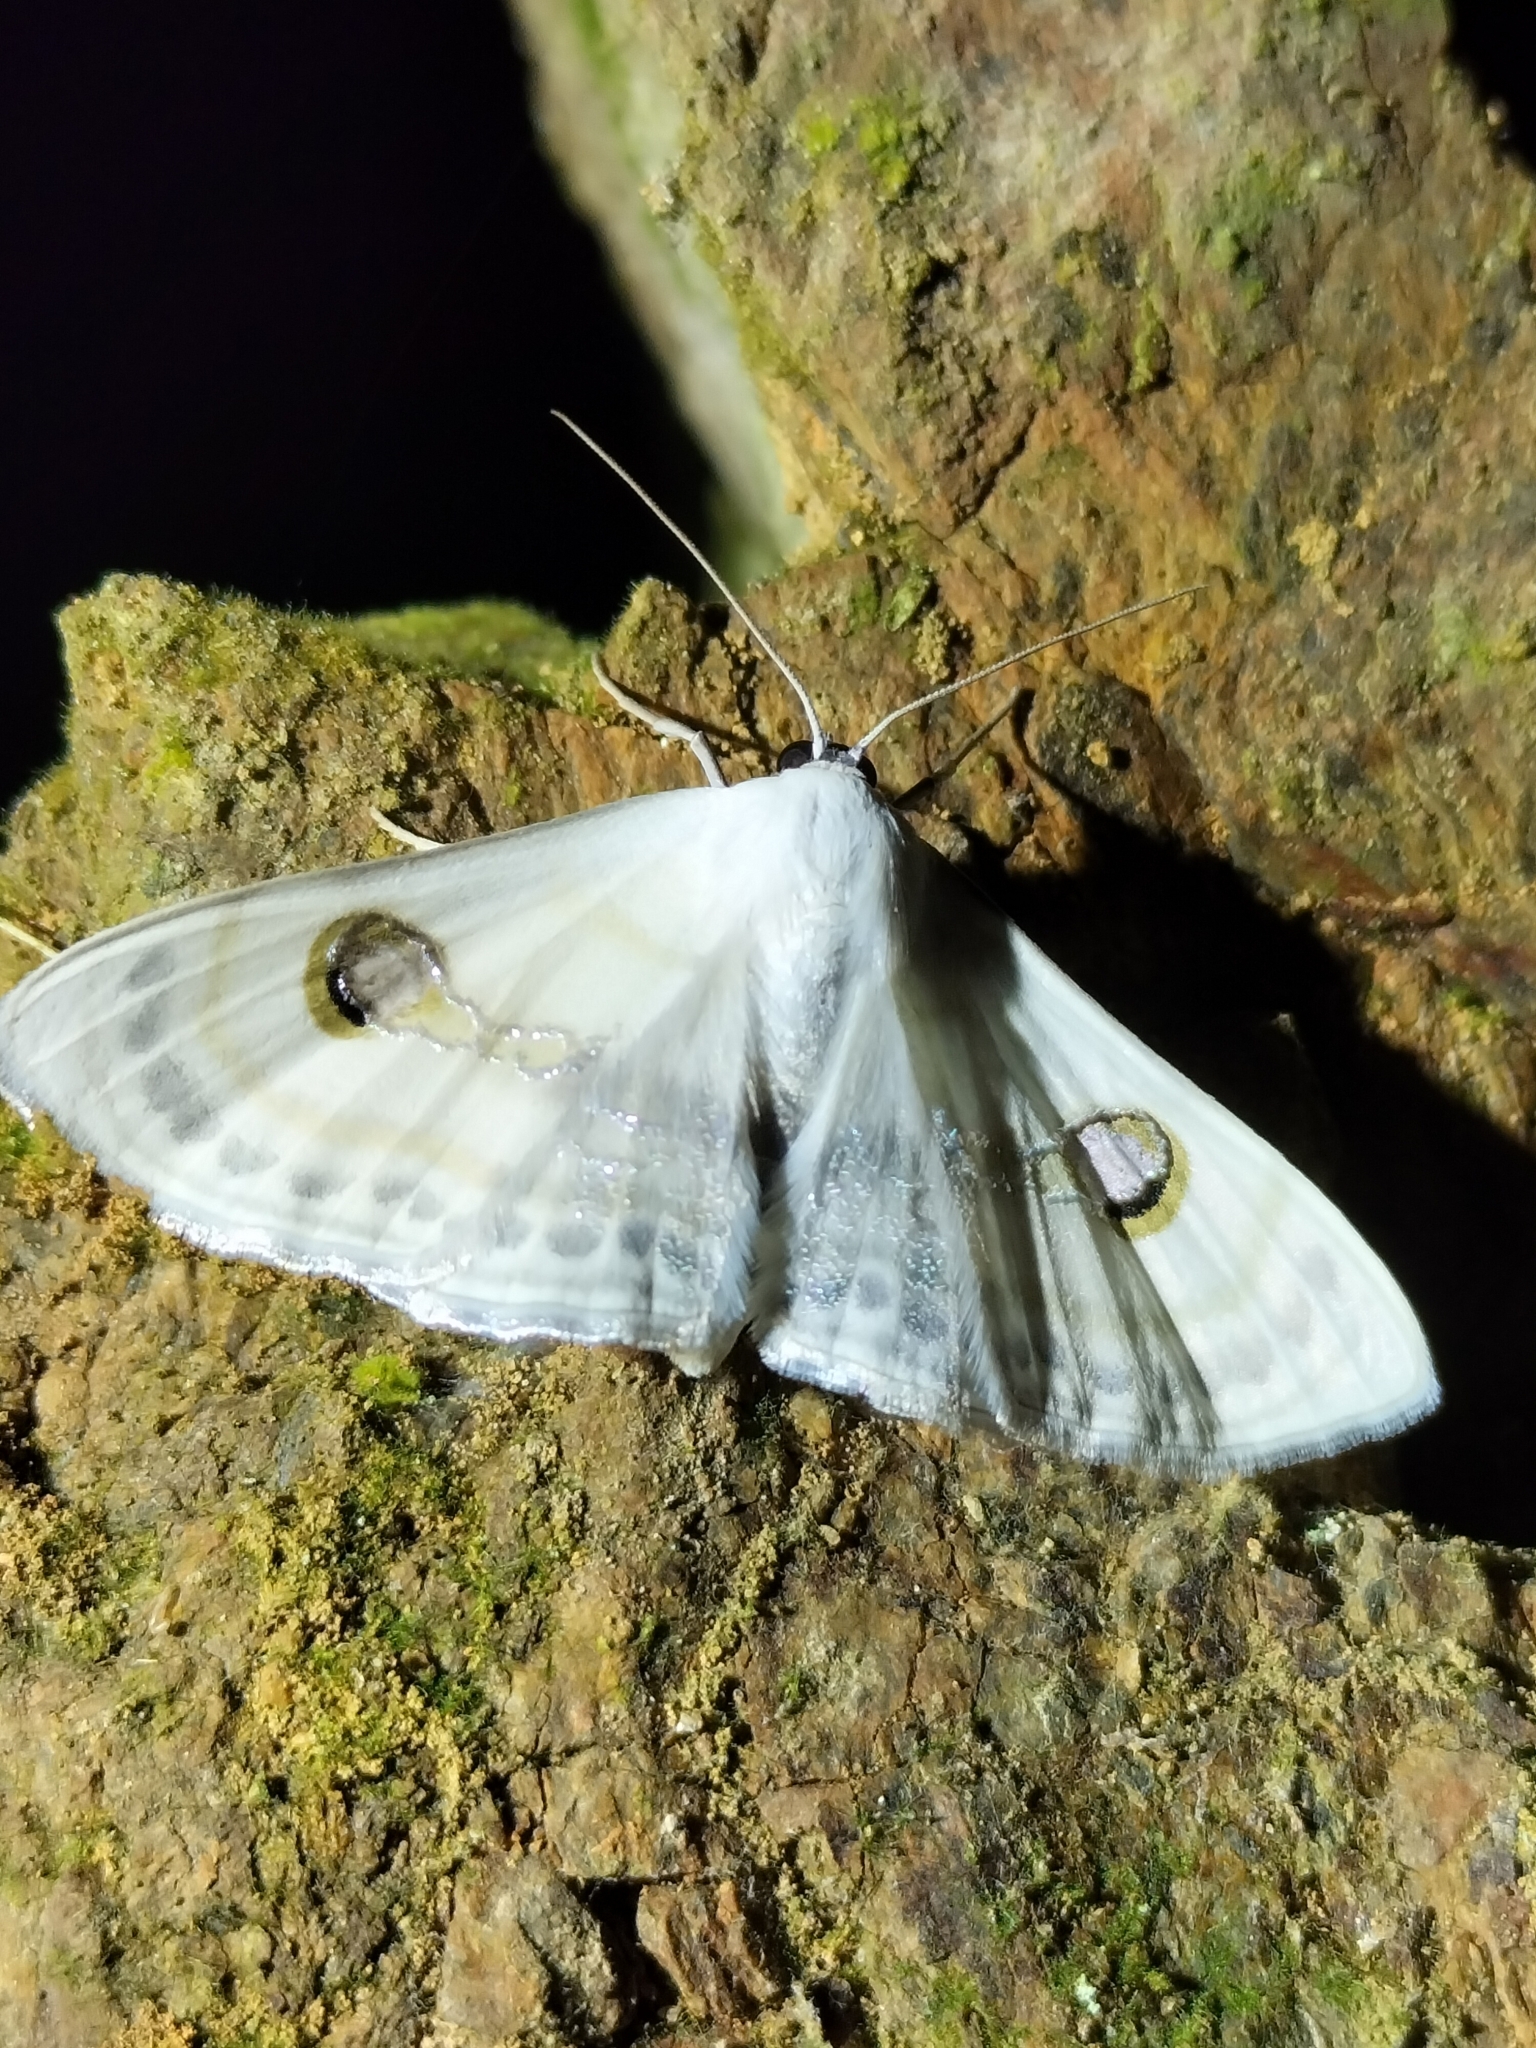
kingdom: Animalia
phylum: Arthropoda
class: Insecta
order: Lepidoptera
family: Geometridae
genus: Problepsis
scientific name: Problepsis apollinaria
